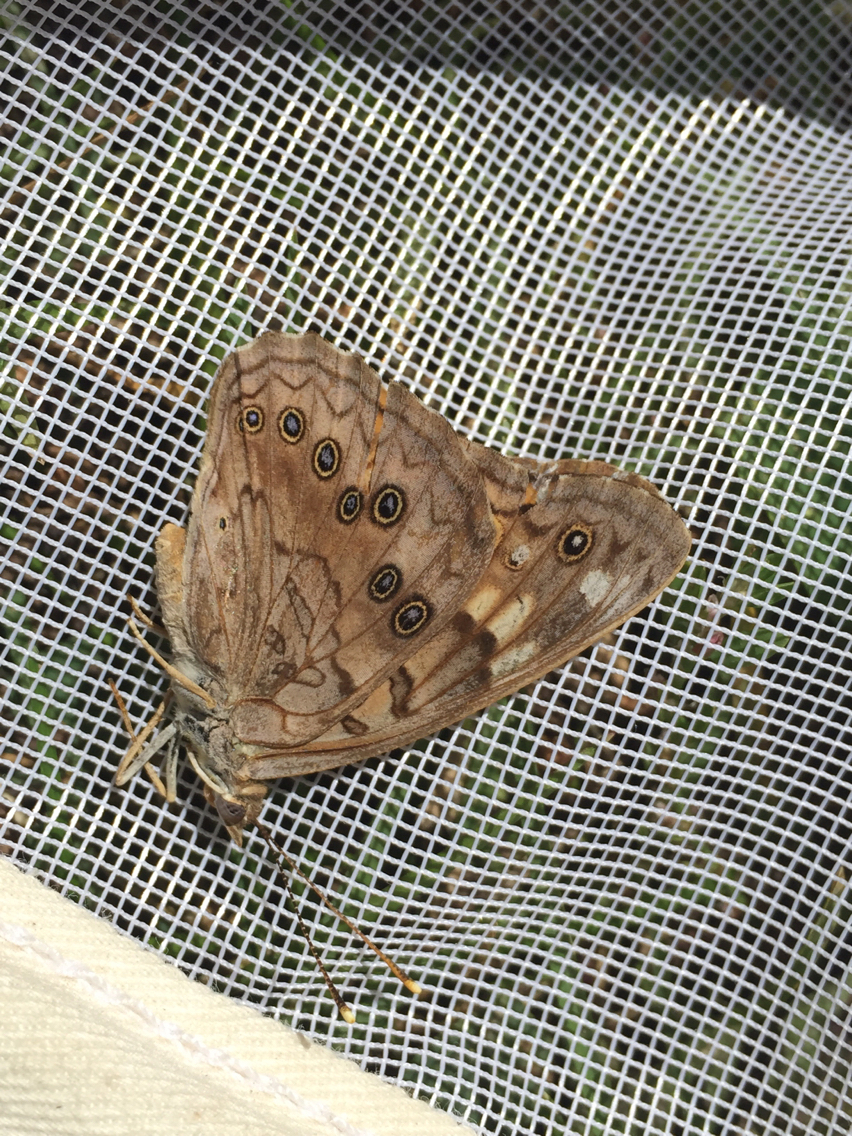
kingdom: Animalia
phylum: Arthropoda
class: Insecta
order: Lepidoptera
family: Nymphalidae
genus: Asterocampa
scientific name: Asterocampa celtis
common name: Hackberry emperor
